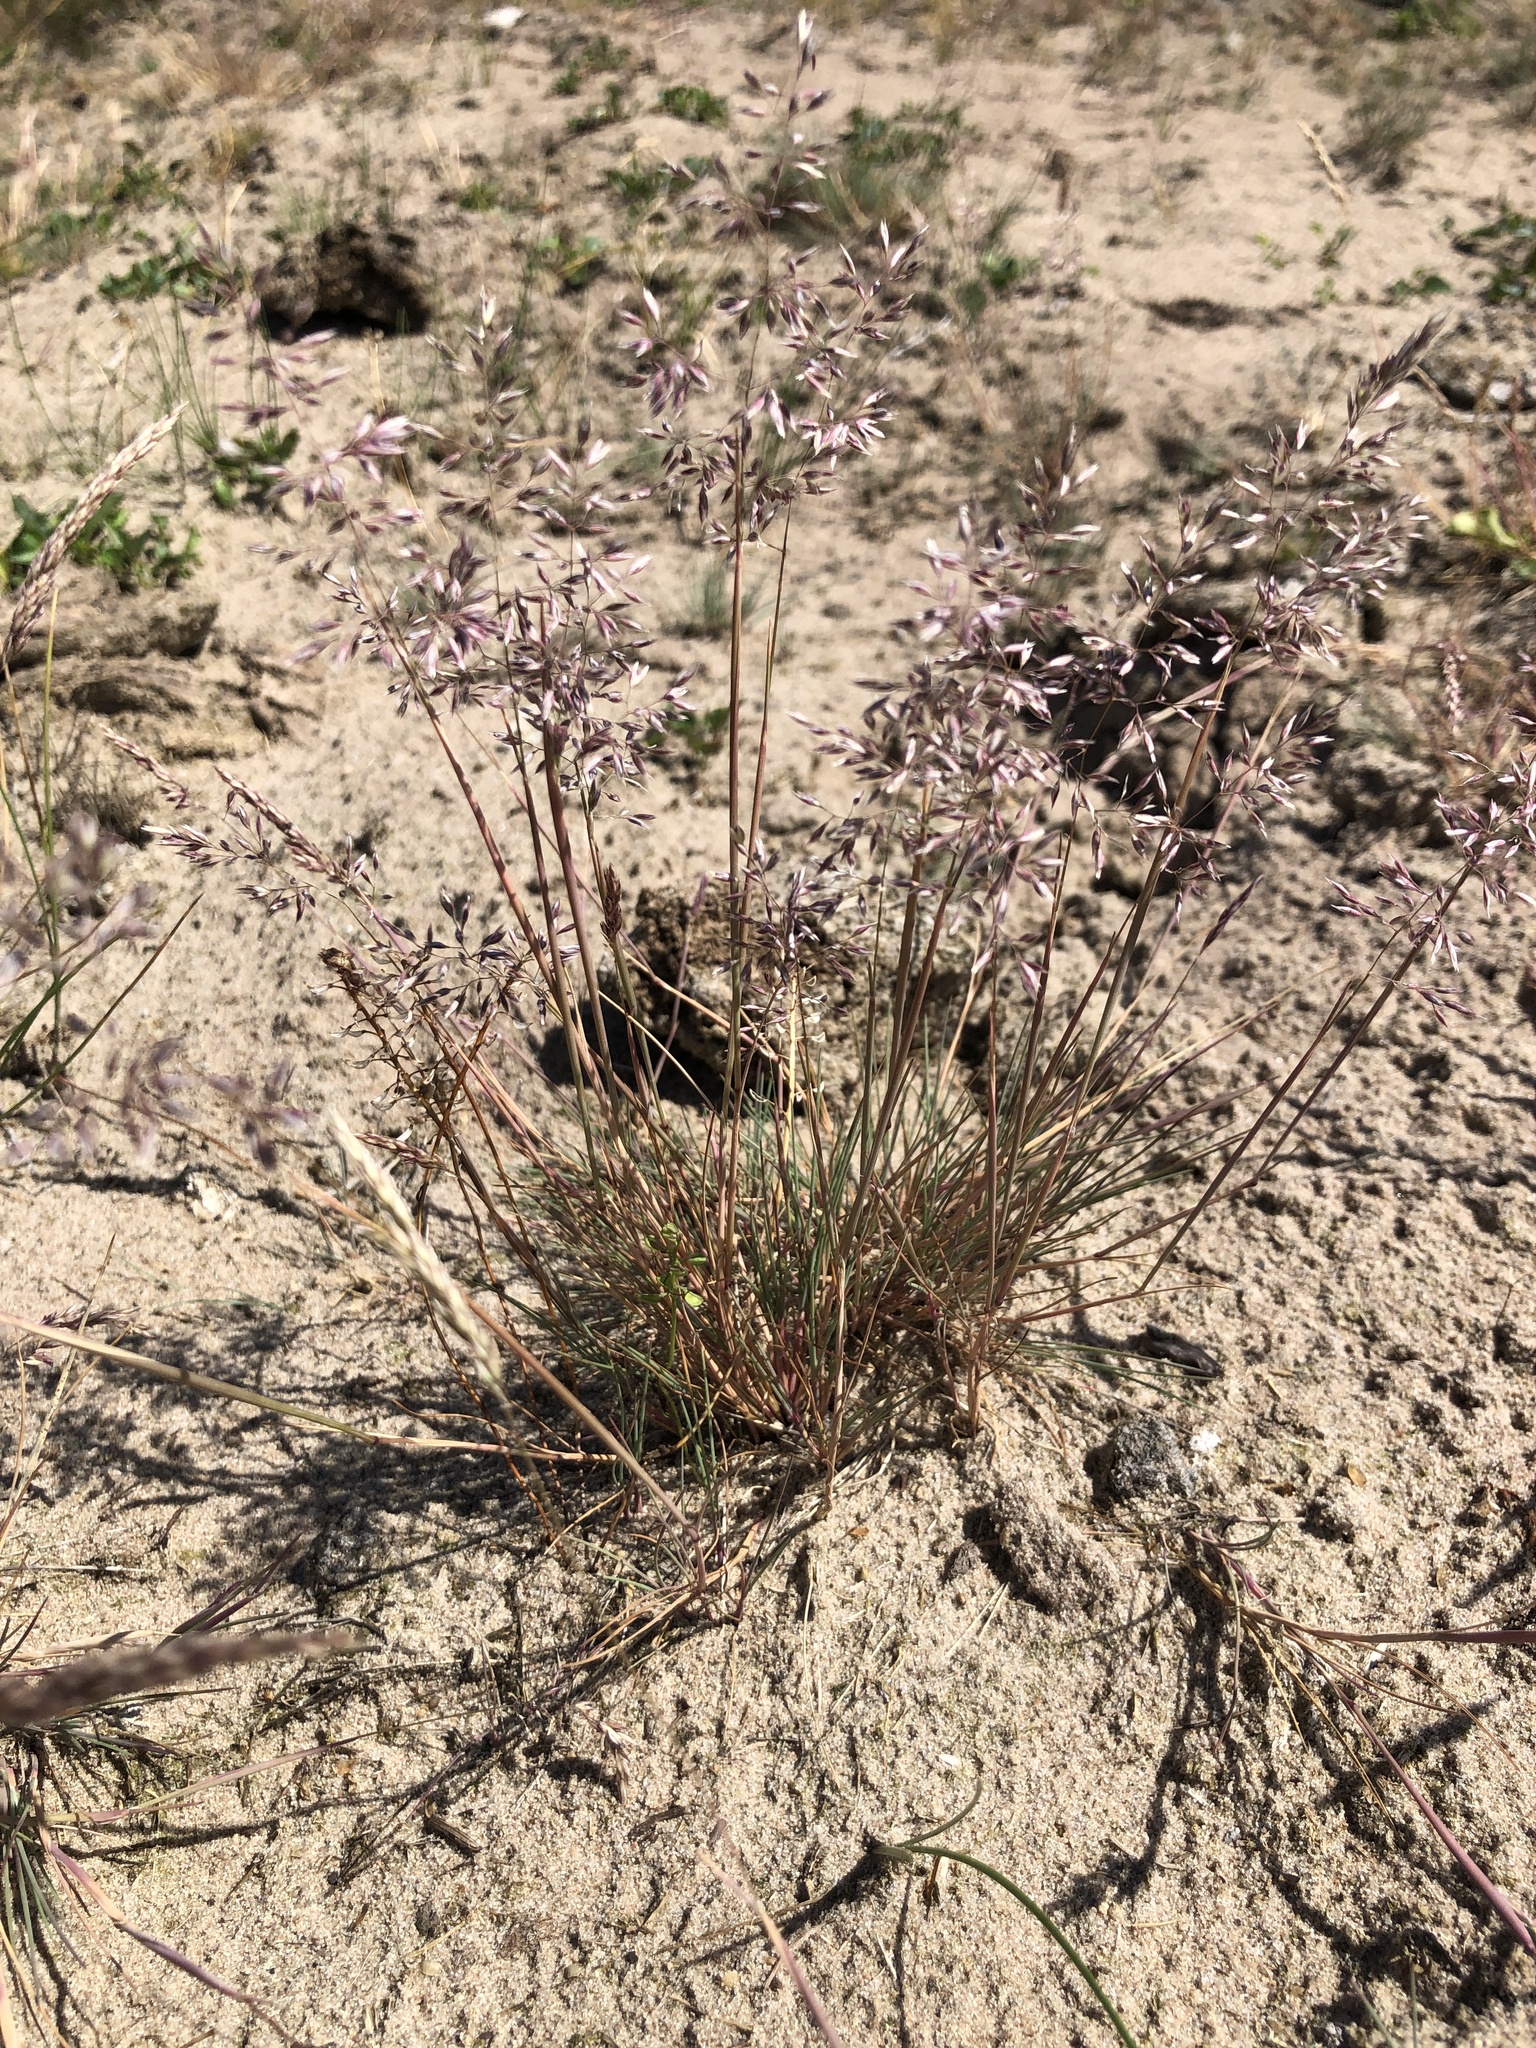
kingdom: Plantae
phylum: Tracheophyta
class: Liliopsida
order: Poales
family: Poaceae
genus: Corynephorus
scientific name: Corynephorus canescens
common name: Grey hair-grass
